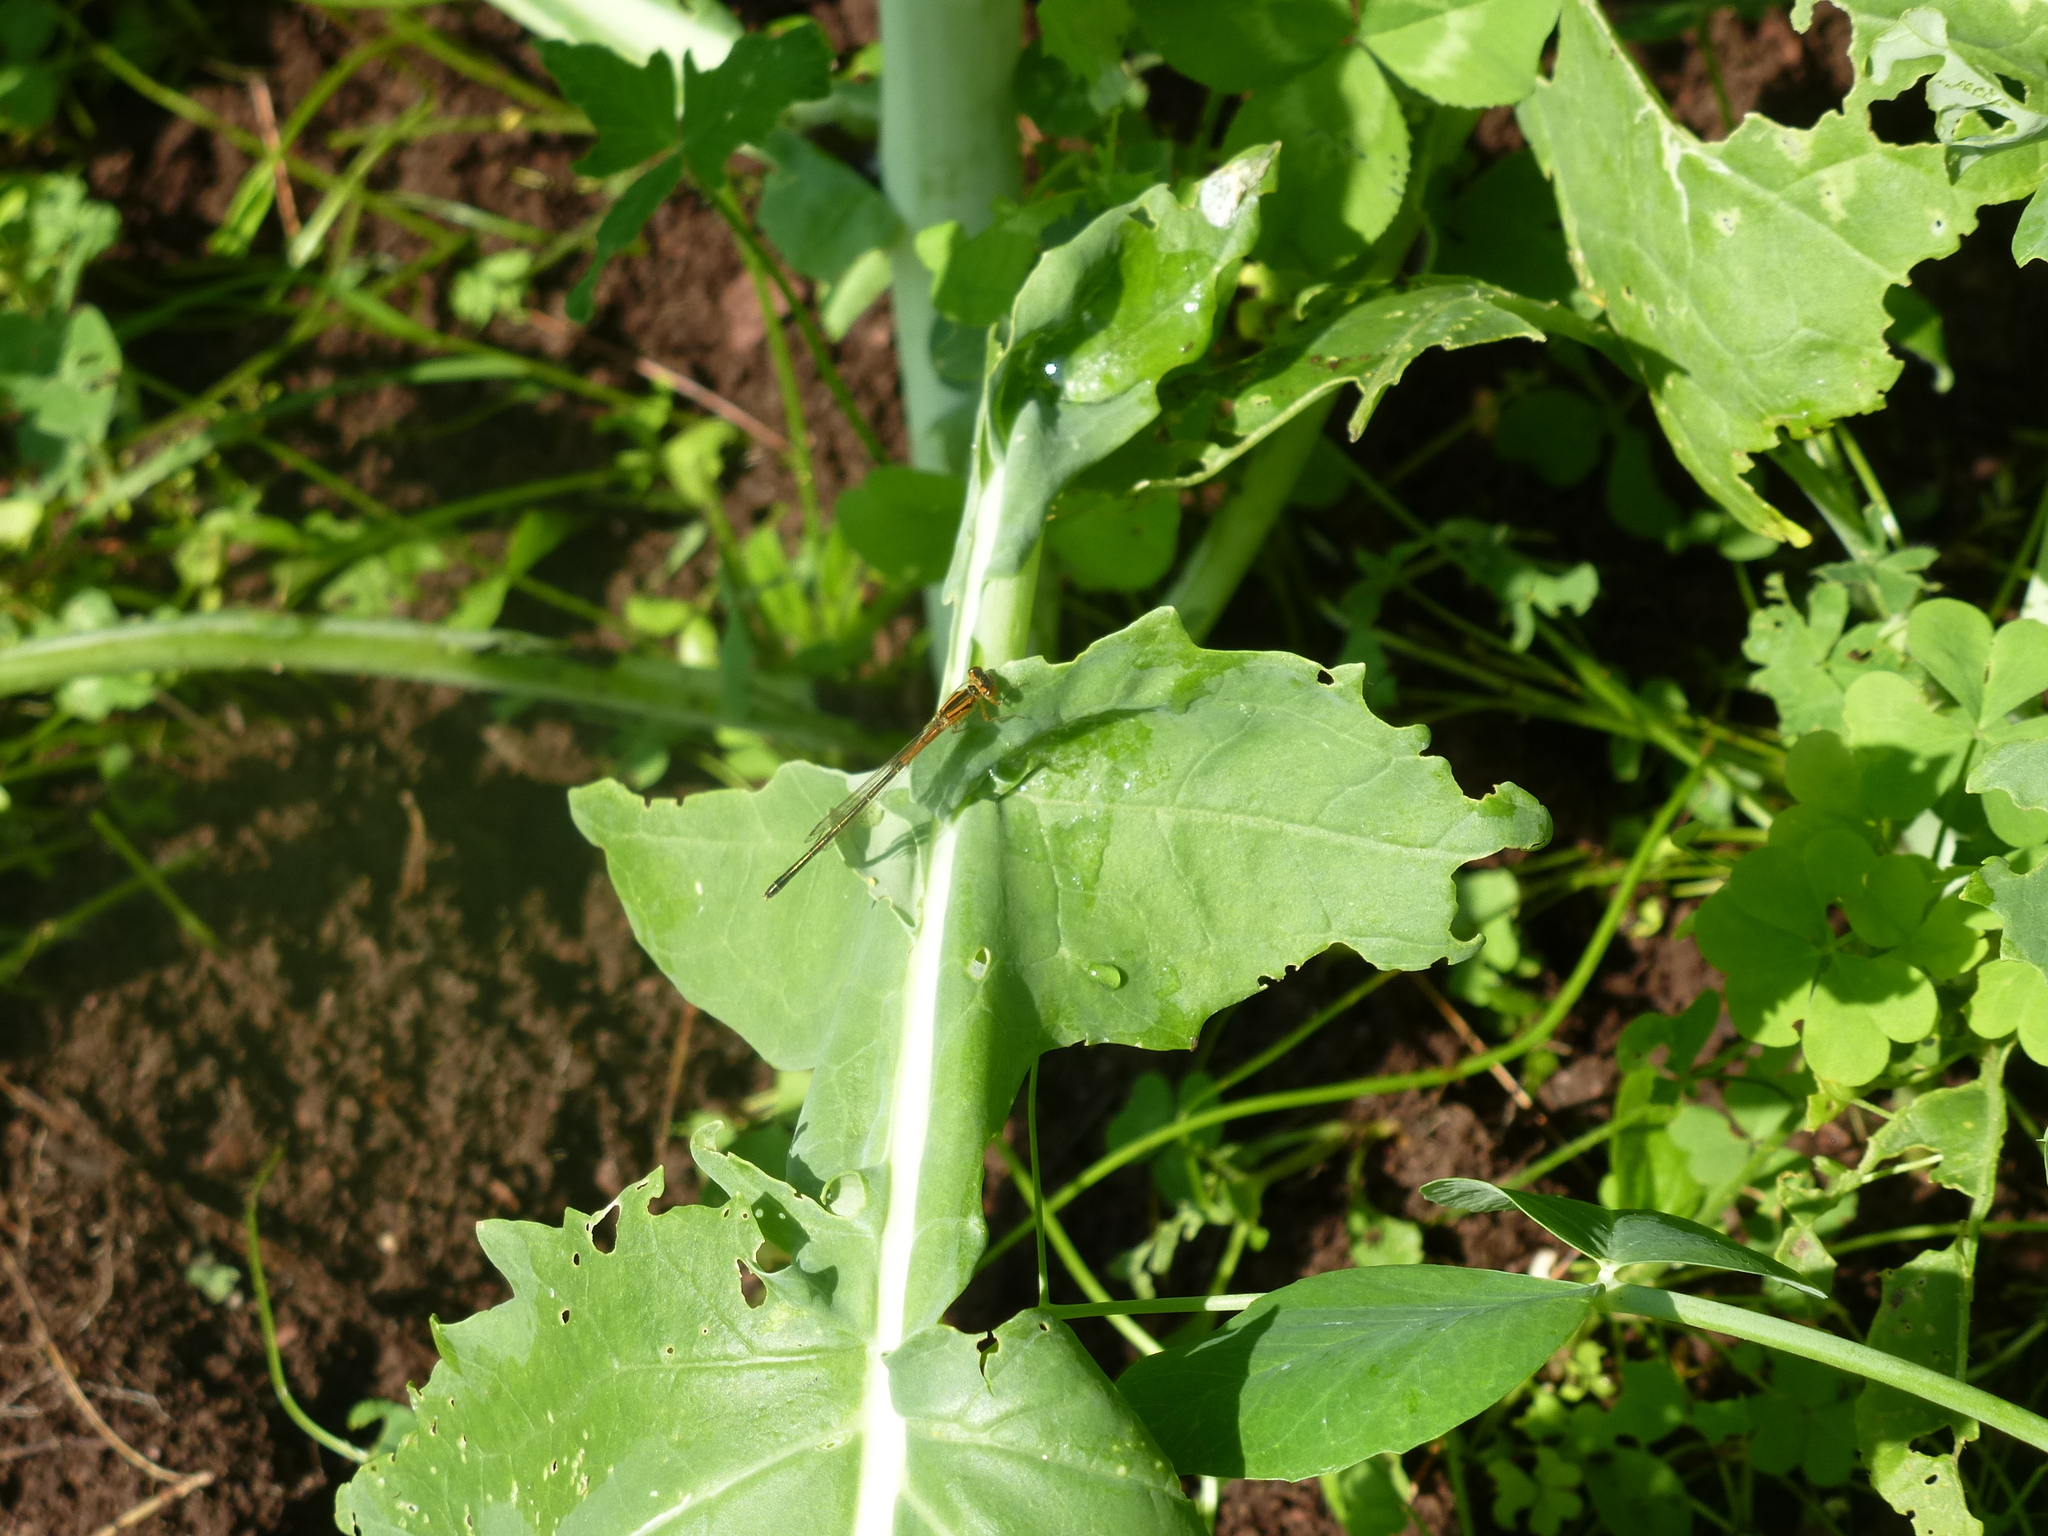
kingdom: Animalia
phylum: Arthropoda
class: Insecta
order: Odonata
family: Coenagrionidae
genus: Ischnura
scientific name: Ischnura verticalis
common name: Eastern forktail
